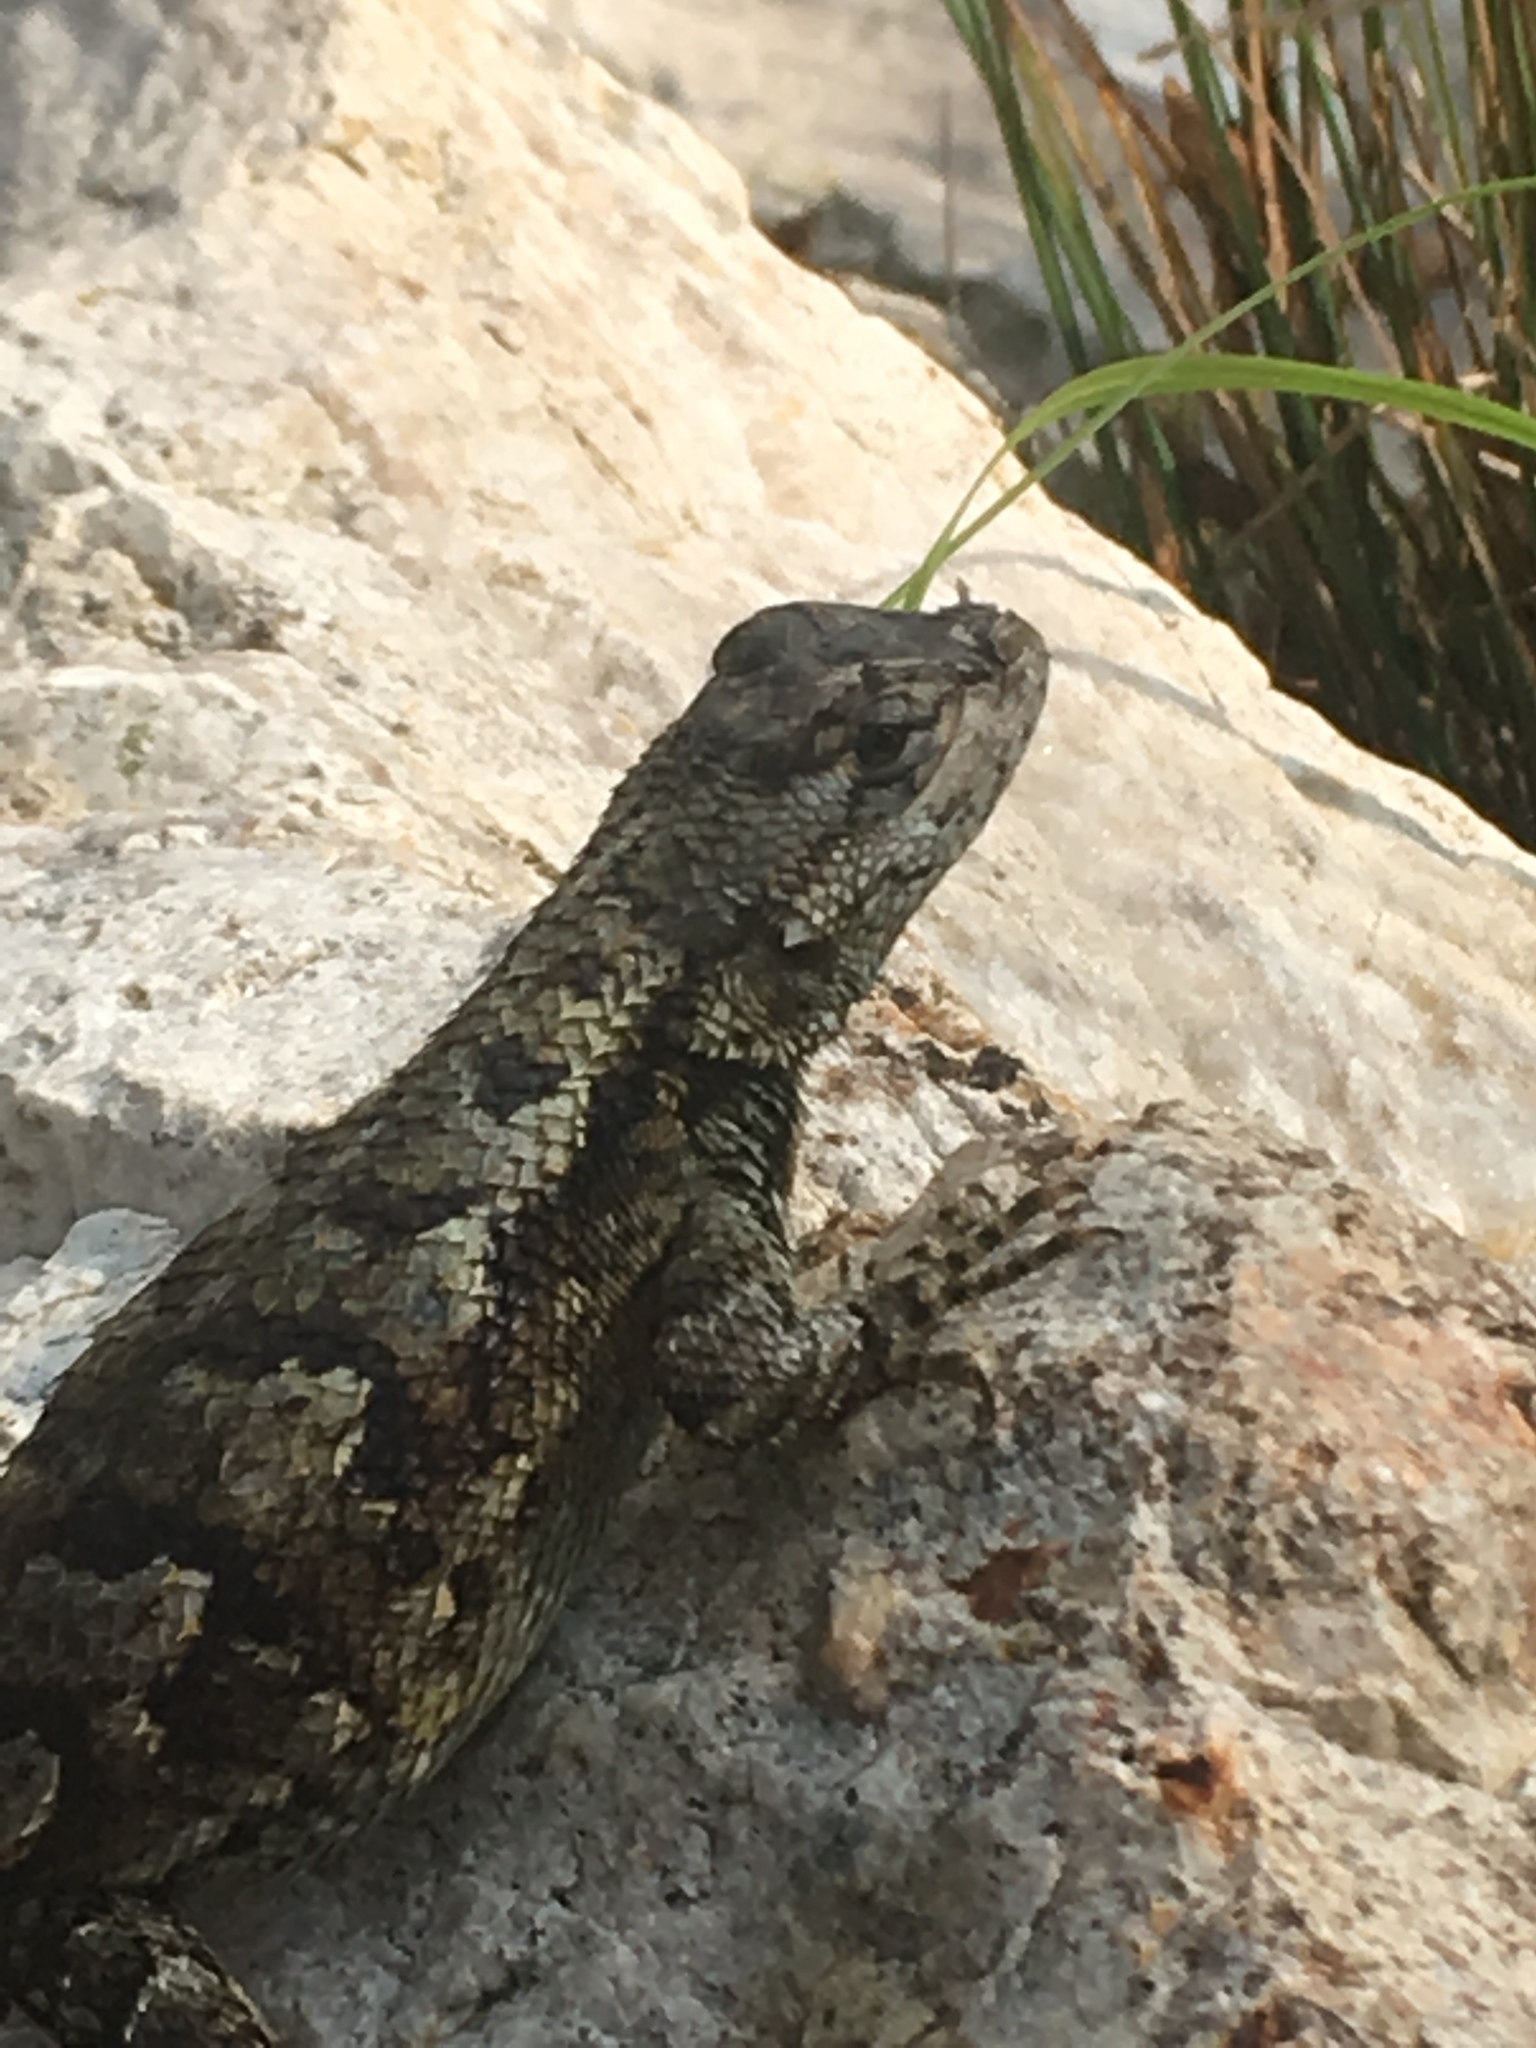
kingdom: Animalia
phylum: Chordata
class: Squamata
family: Phrynosomatidae
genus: Sceloporus
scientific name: Sceloporus undulatus
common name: Eastern fence lizard
